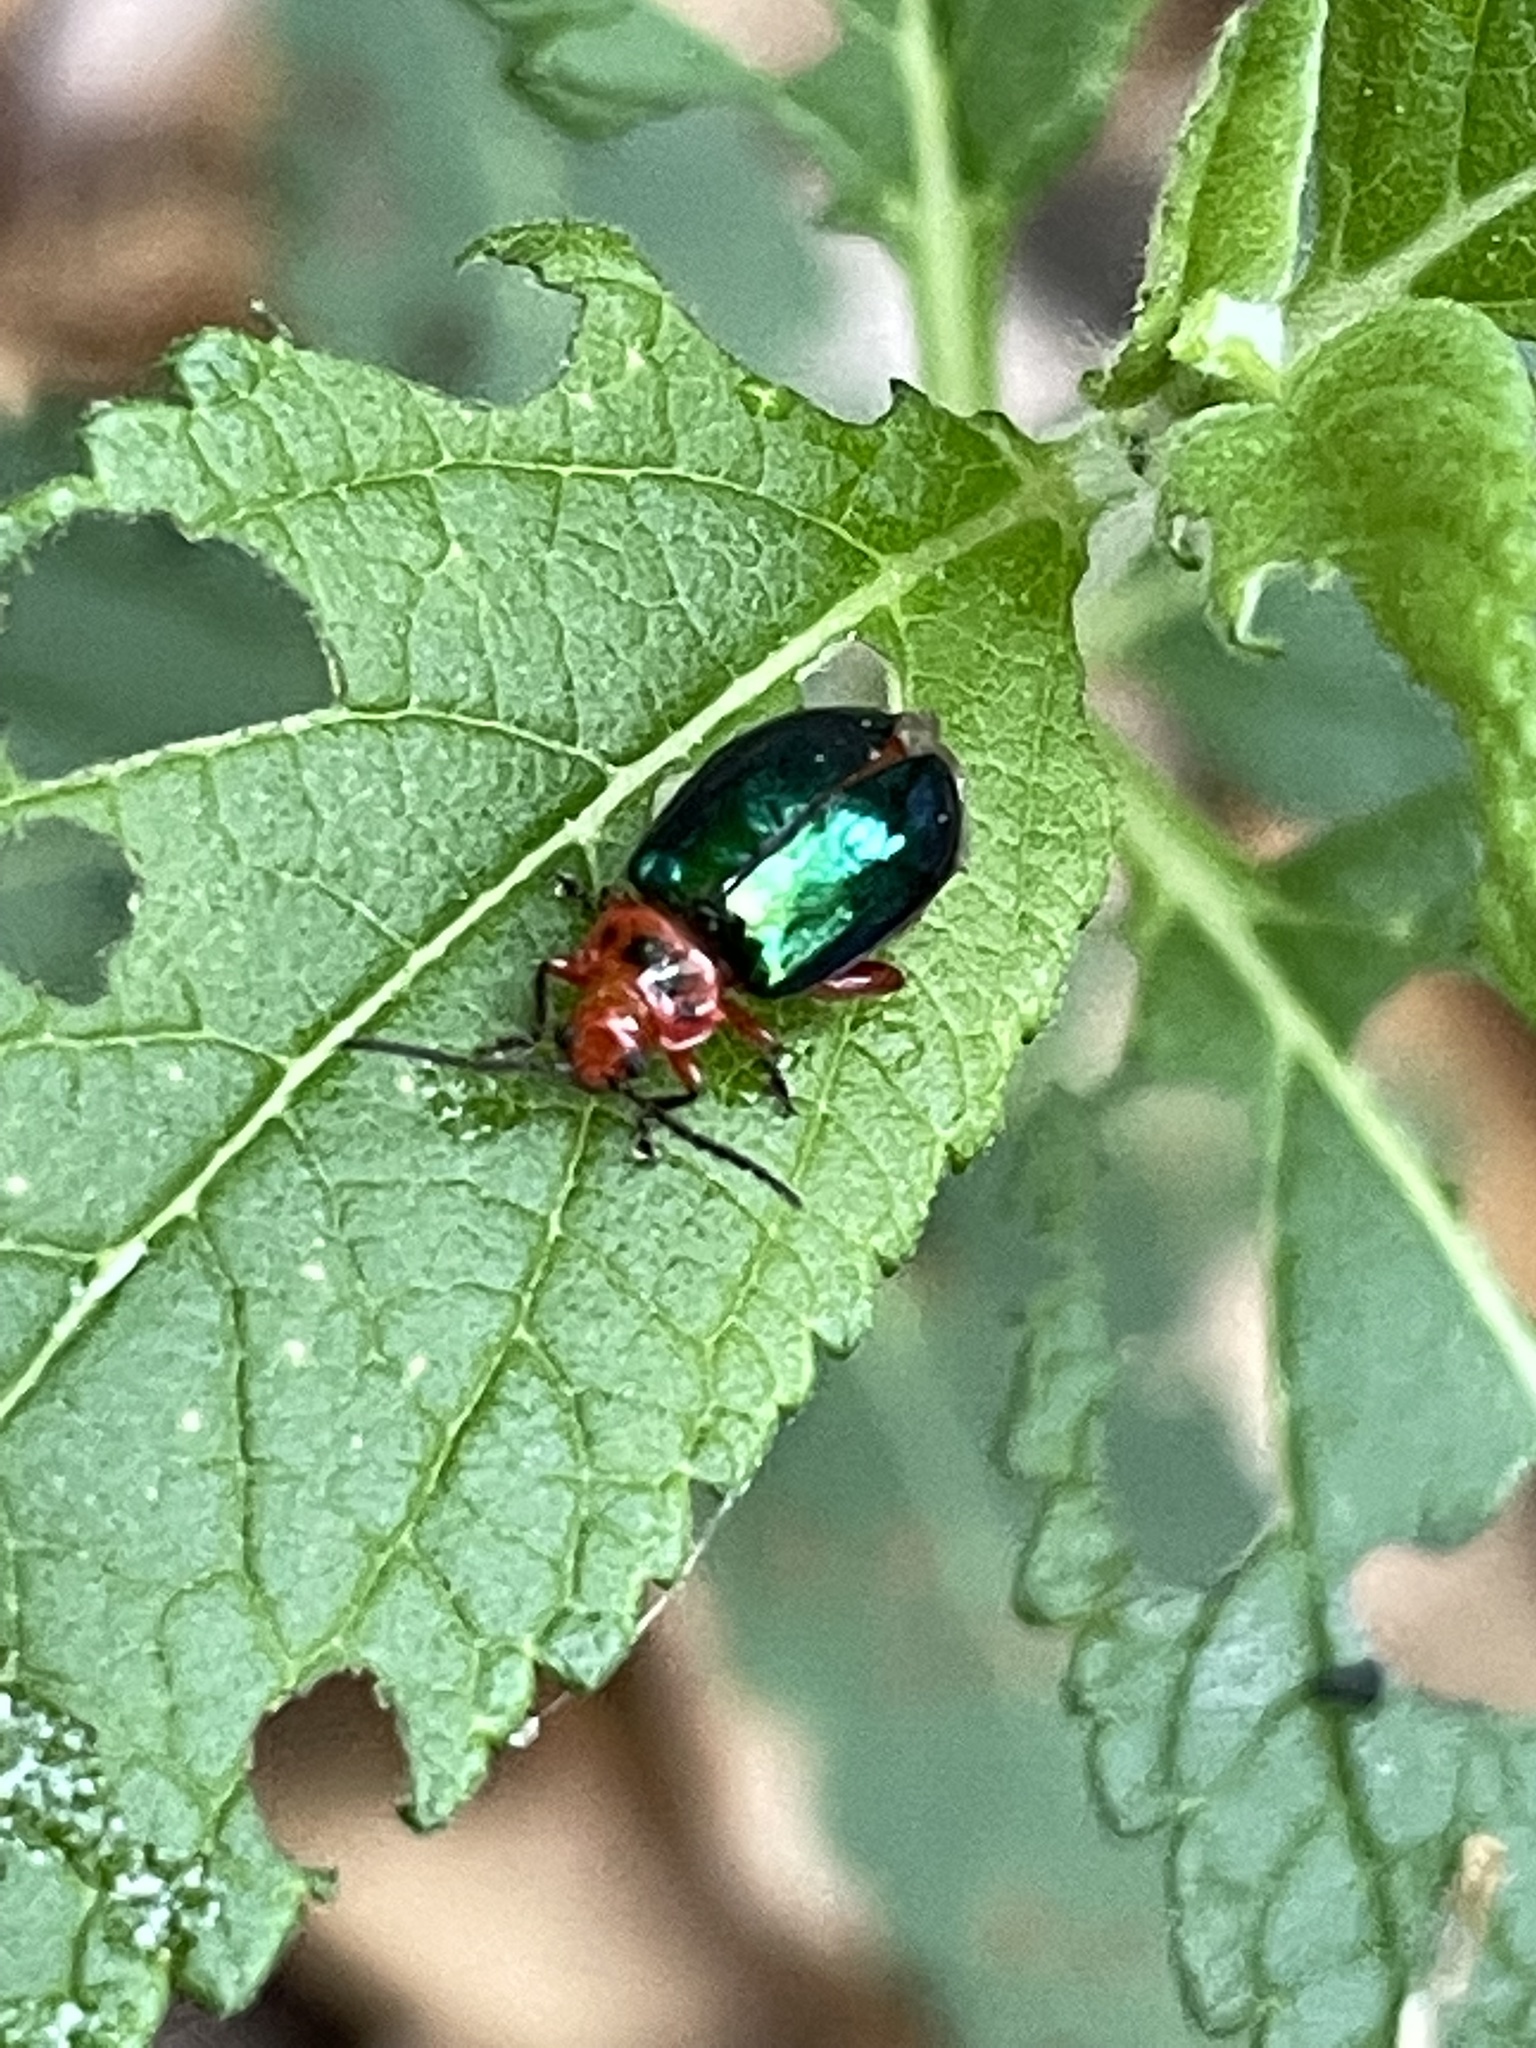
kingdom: Animalia
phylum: Arthropoda
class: Insecta
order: Coleoptera
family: Chrysomelidae
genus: Kuschelina
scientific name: Kuschelina gibbitarsa
